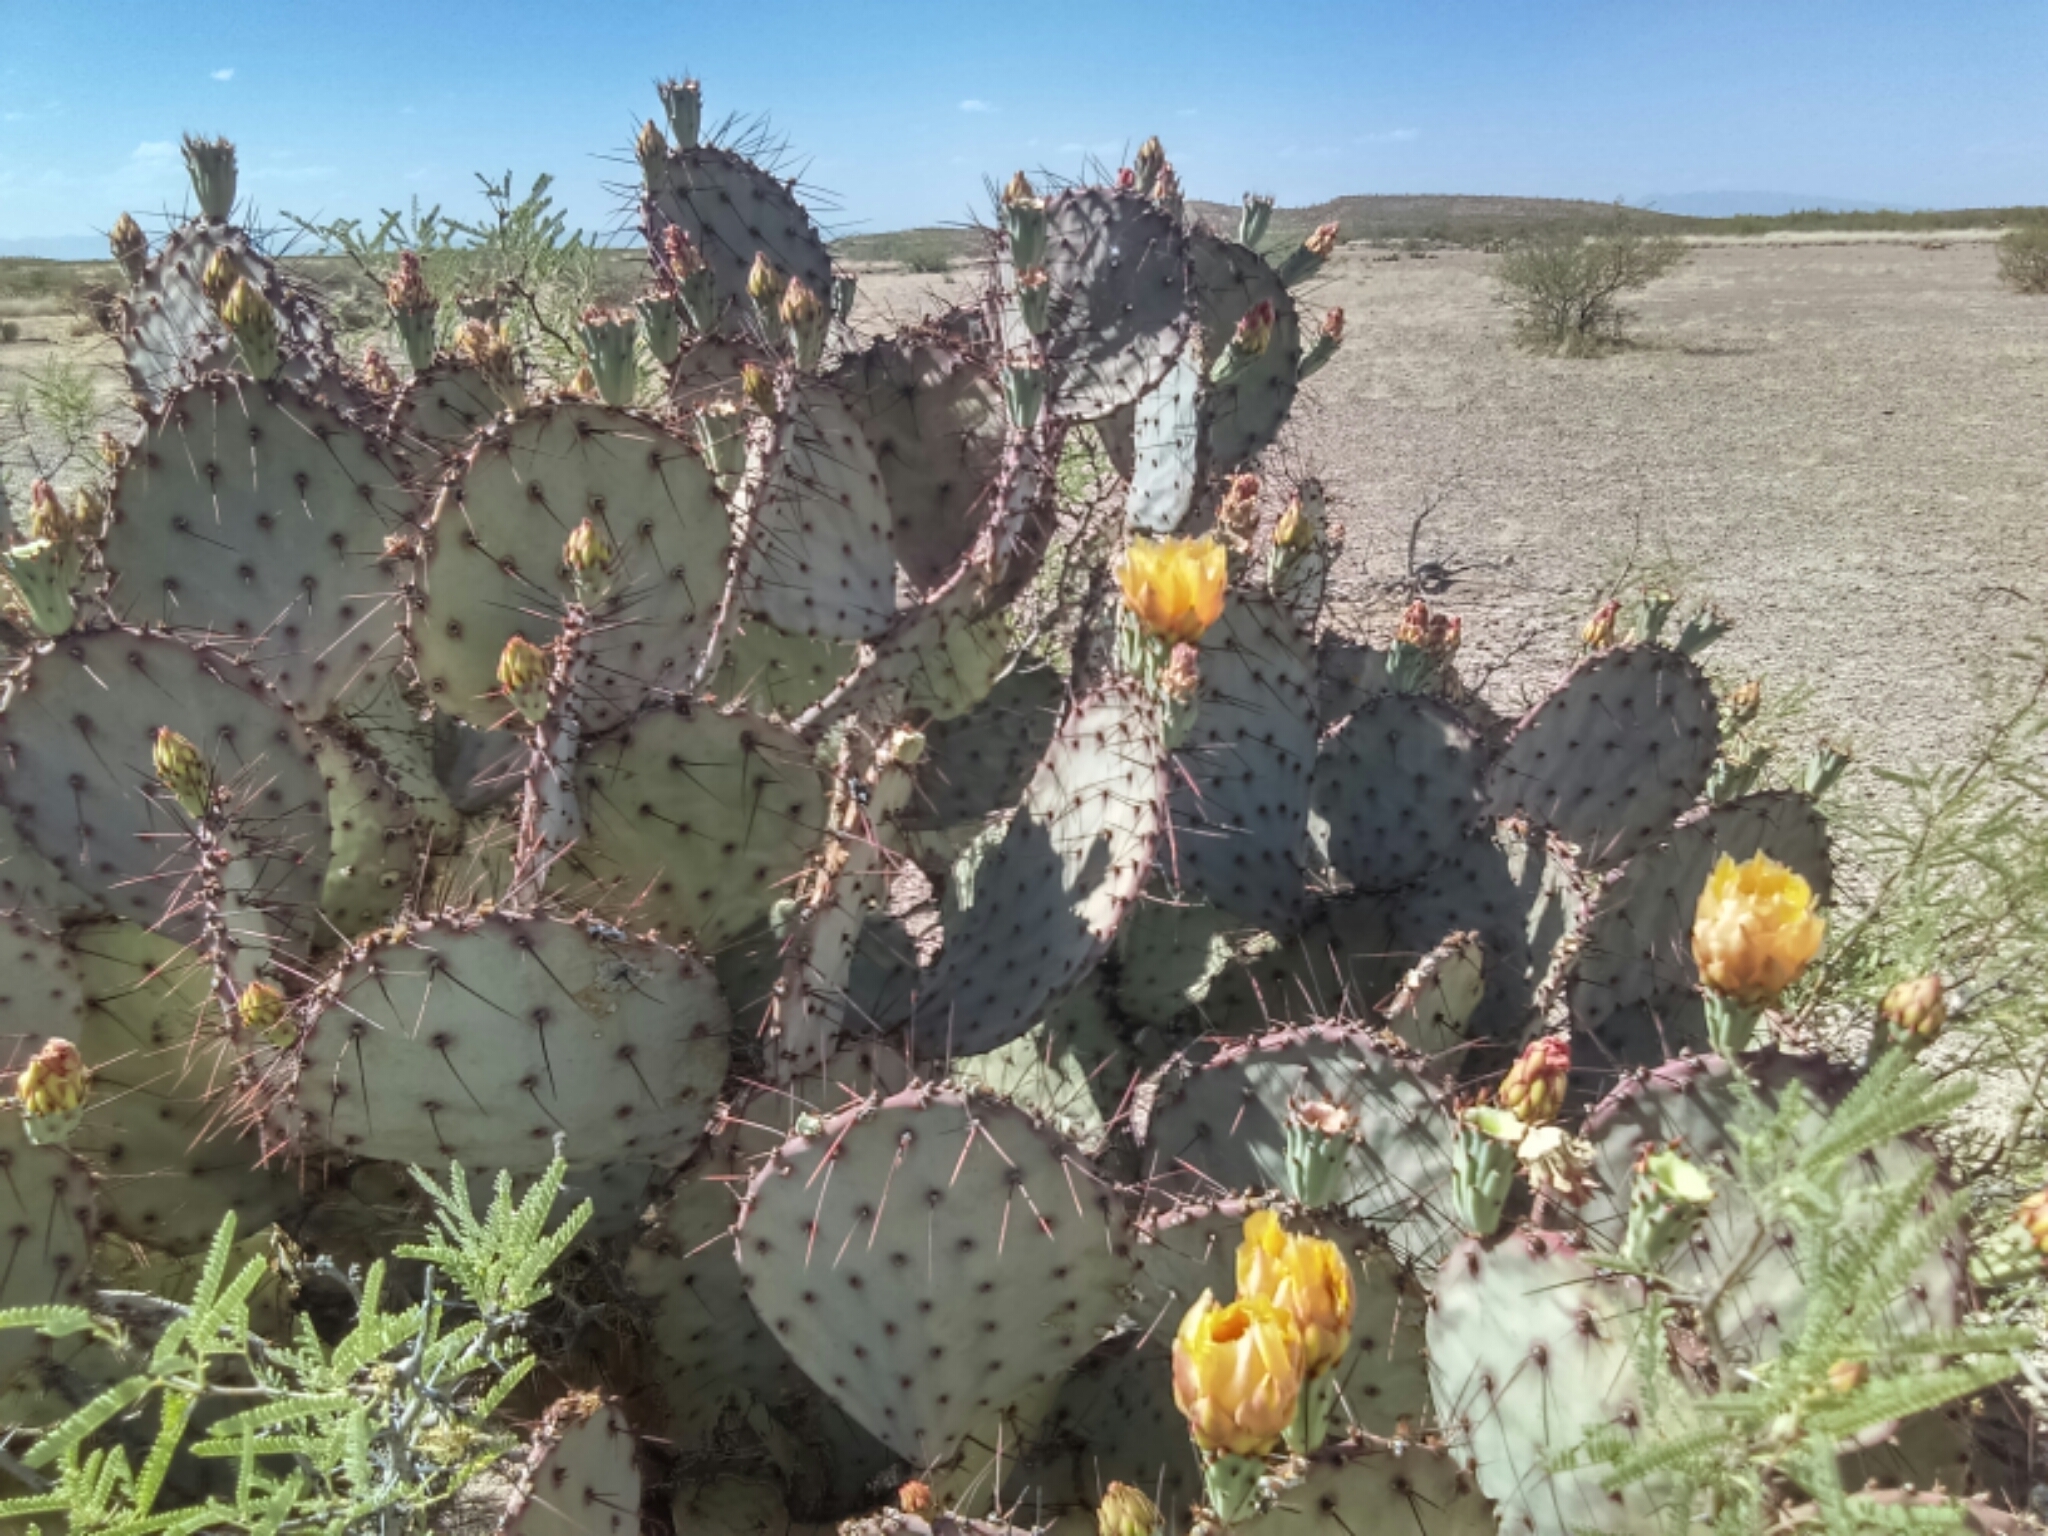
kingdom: Plantae
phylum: Tracheophyta
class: Magnoliopsida
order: Caryophyllales
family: Cactaceae
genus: Opuntia
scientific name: Opuntia macrocentra
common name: Purple prickly-pear
